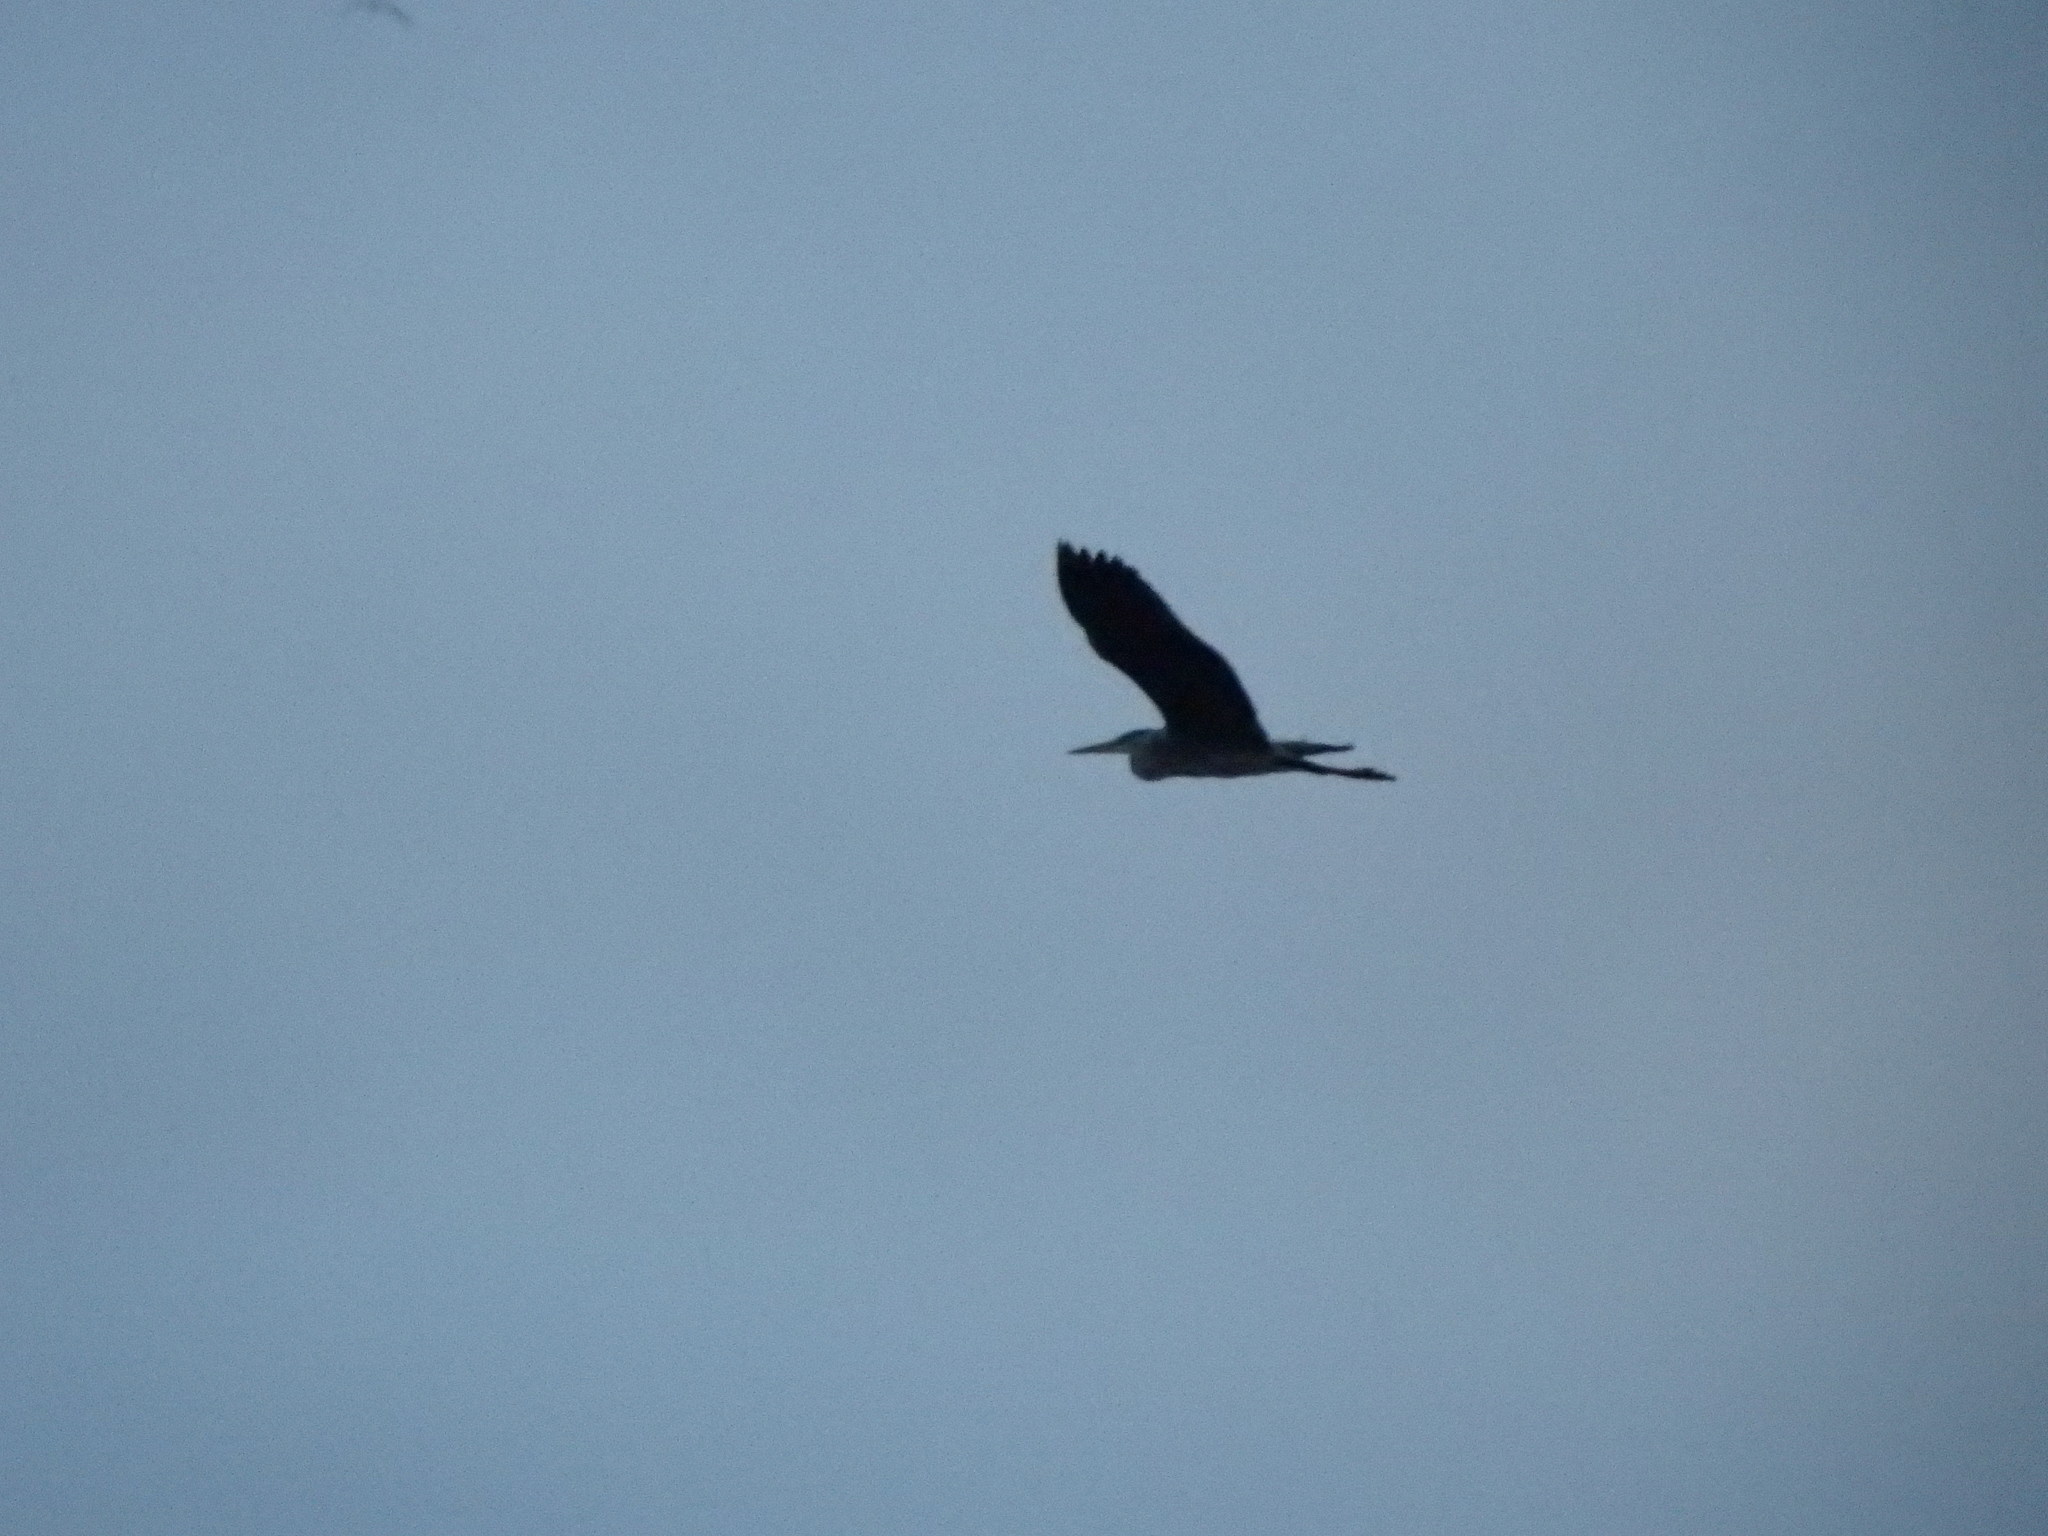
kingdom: Animalia
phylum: Chordata
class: Aves
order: Pelecaniformes
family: Ardeidae
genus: Ardea
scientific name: Ardea cinerea
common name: Grey heron
